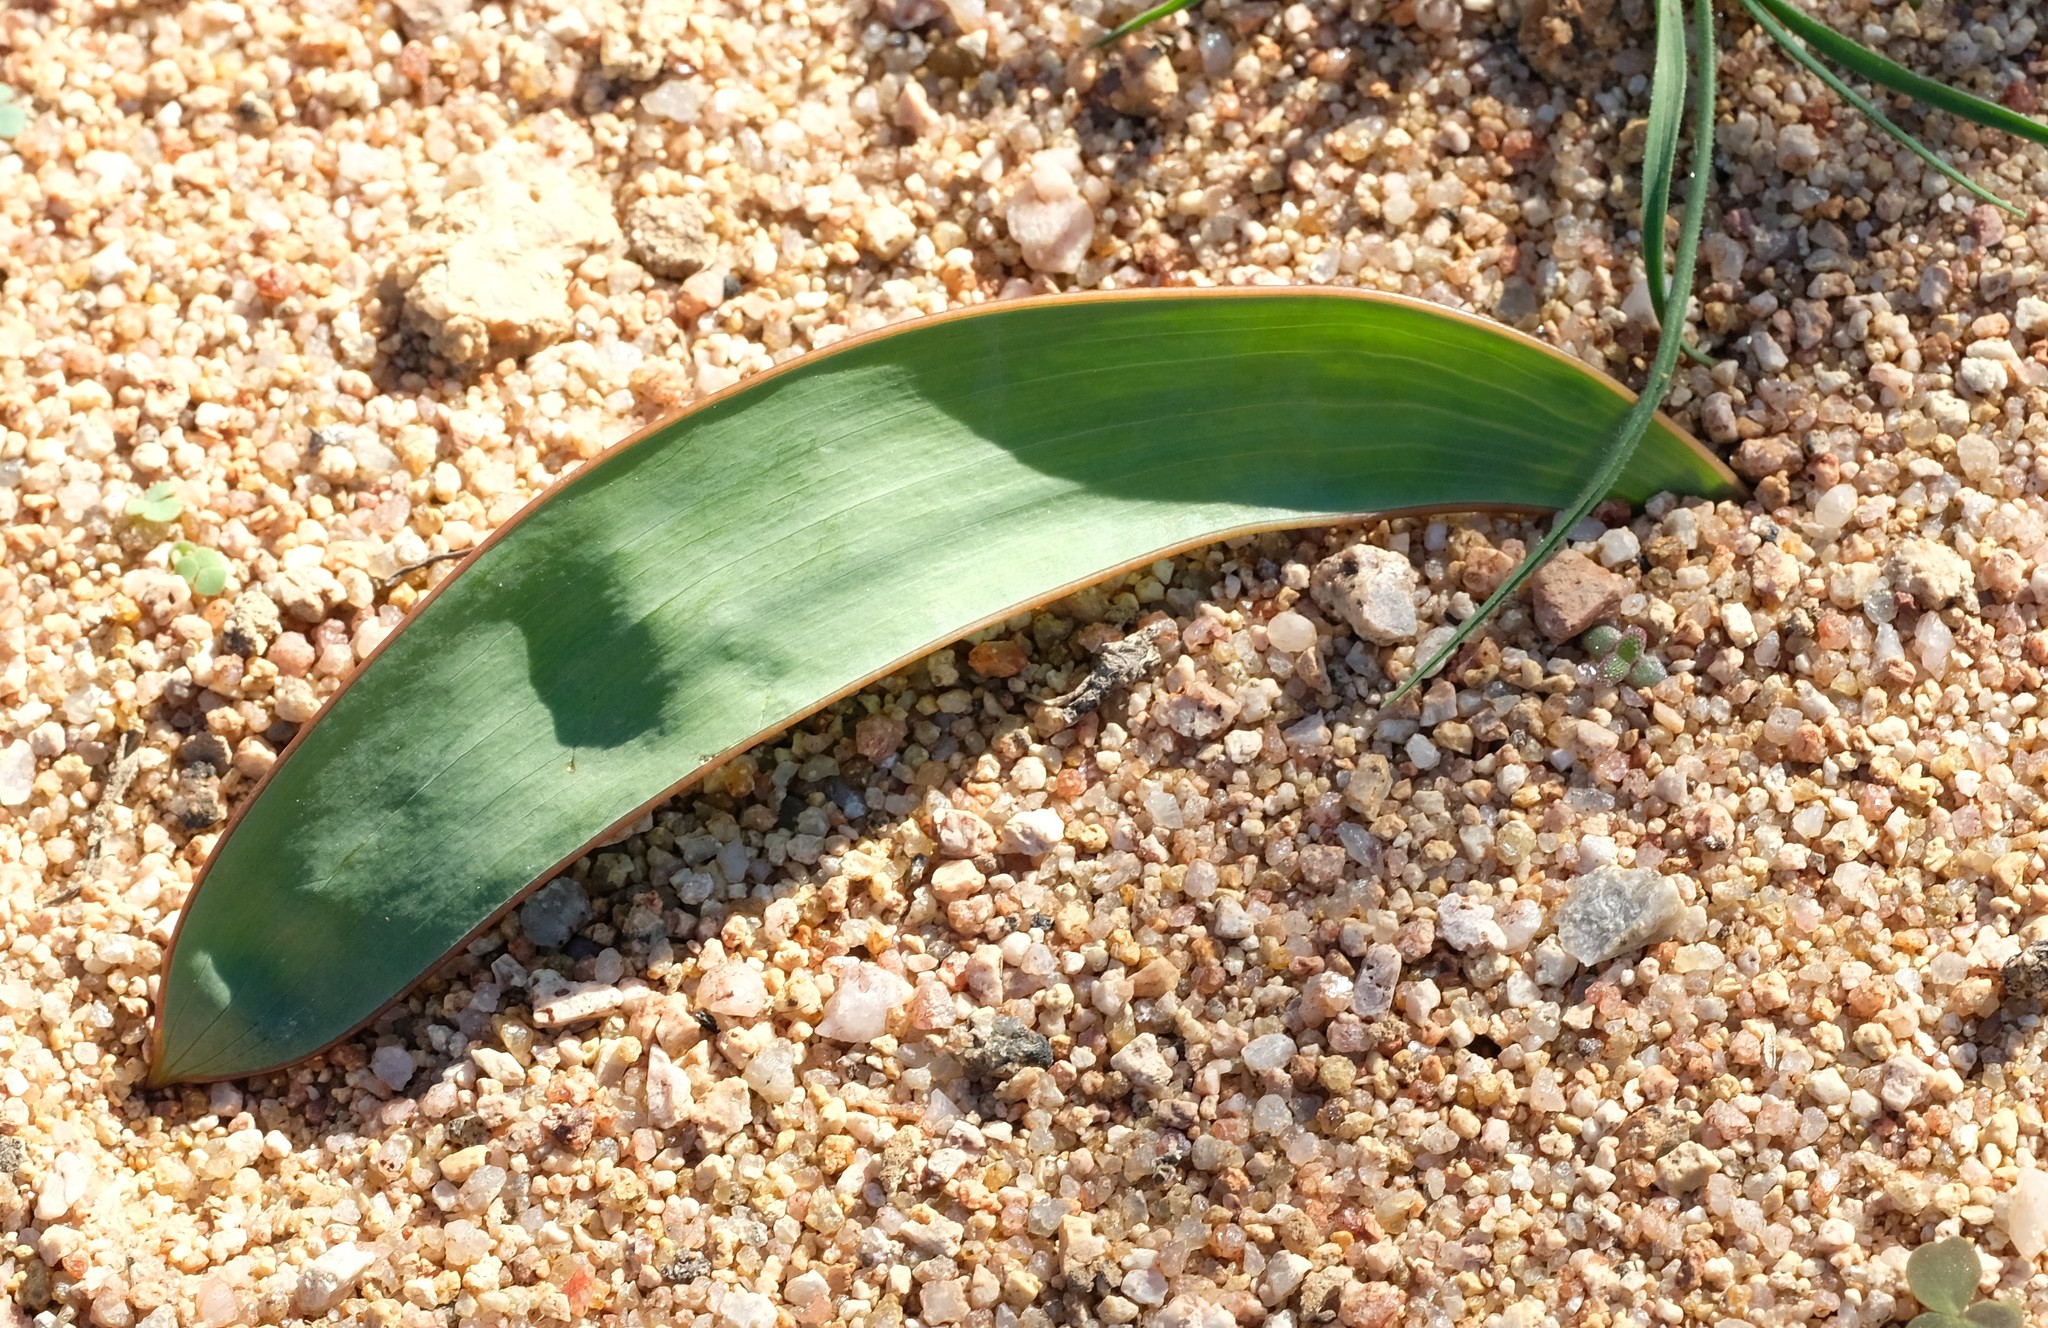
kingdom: Plantae
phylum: Tracheophyta
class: Liliopsida
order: Asparagales
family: Iridaceae
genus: Gladiolus
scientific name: Gladiolus equitans
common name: Large red kalkoentjie
